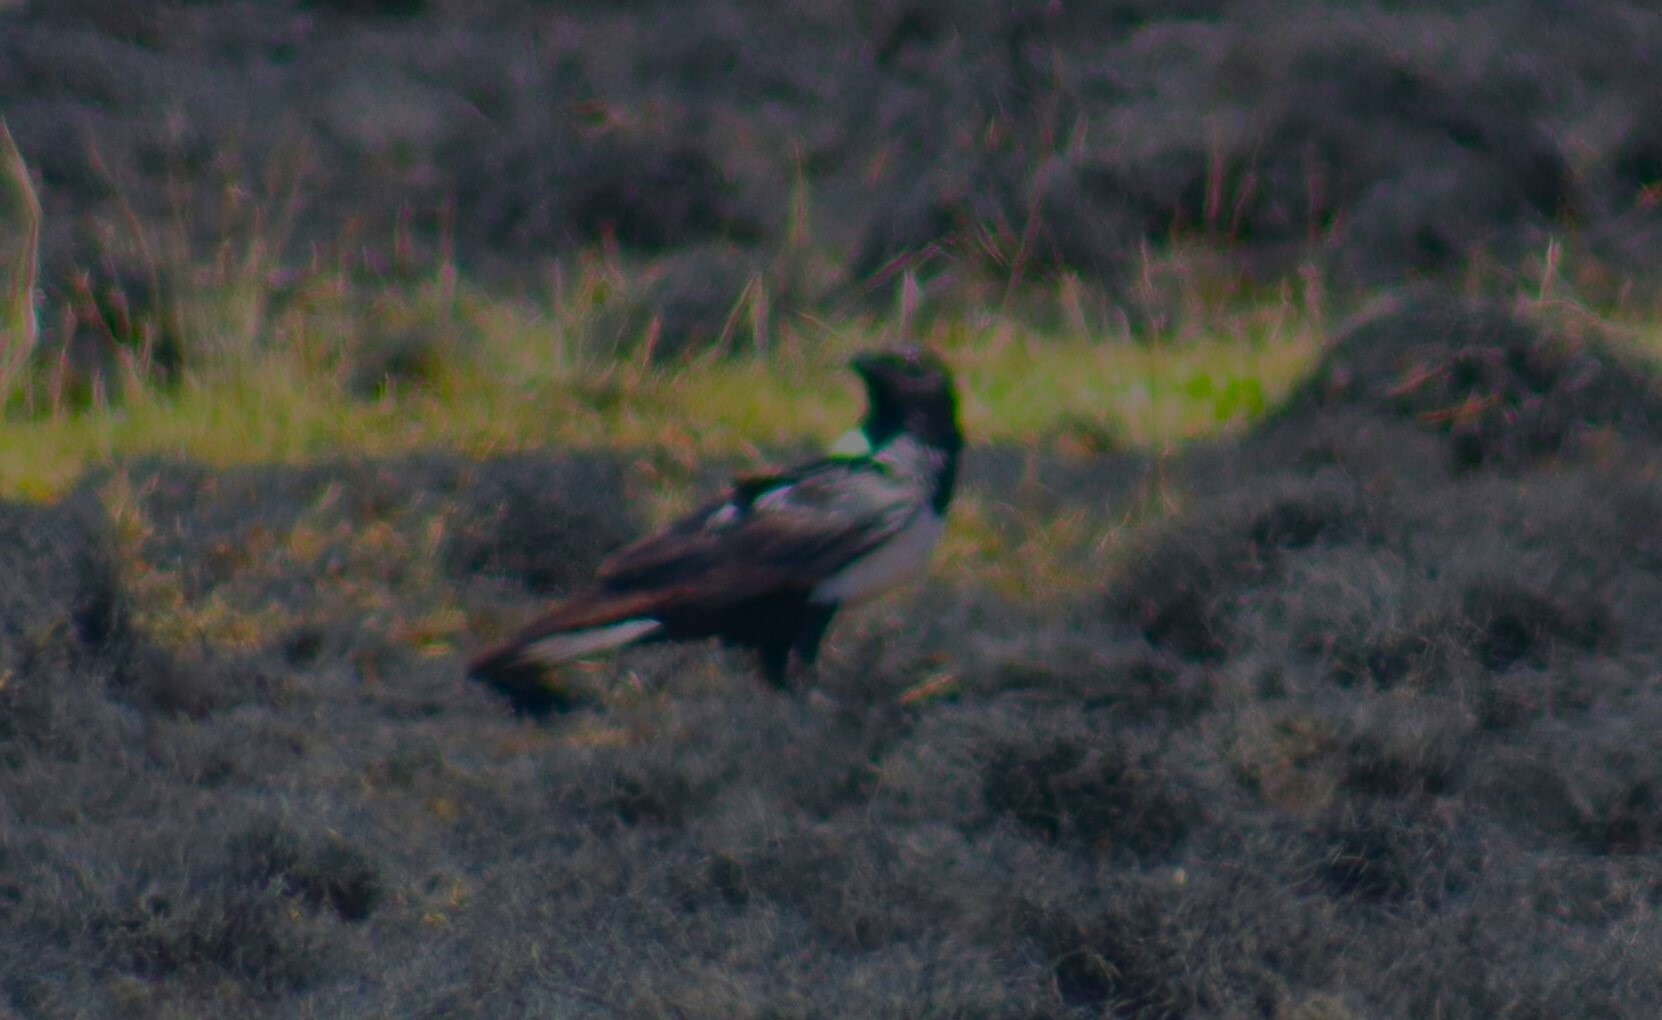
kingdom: Animalia
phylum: Chordata
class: Aves
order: Passeriformes
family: Corvidae
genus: Corvus
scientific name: Corvus albus
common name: Pied crow
